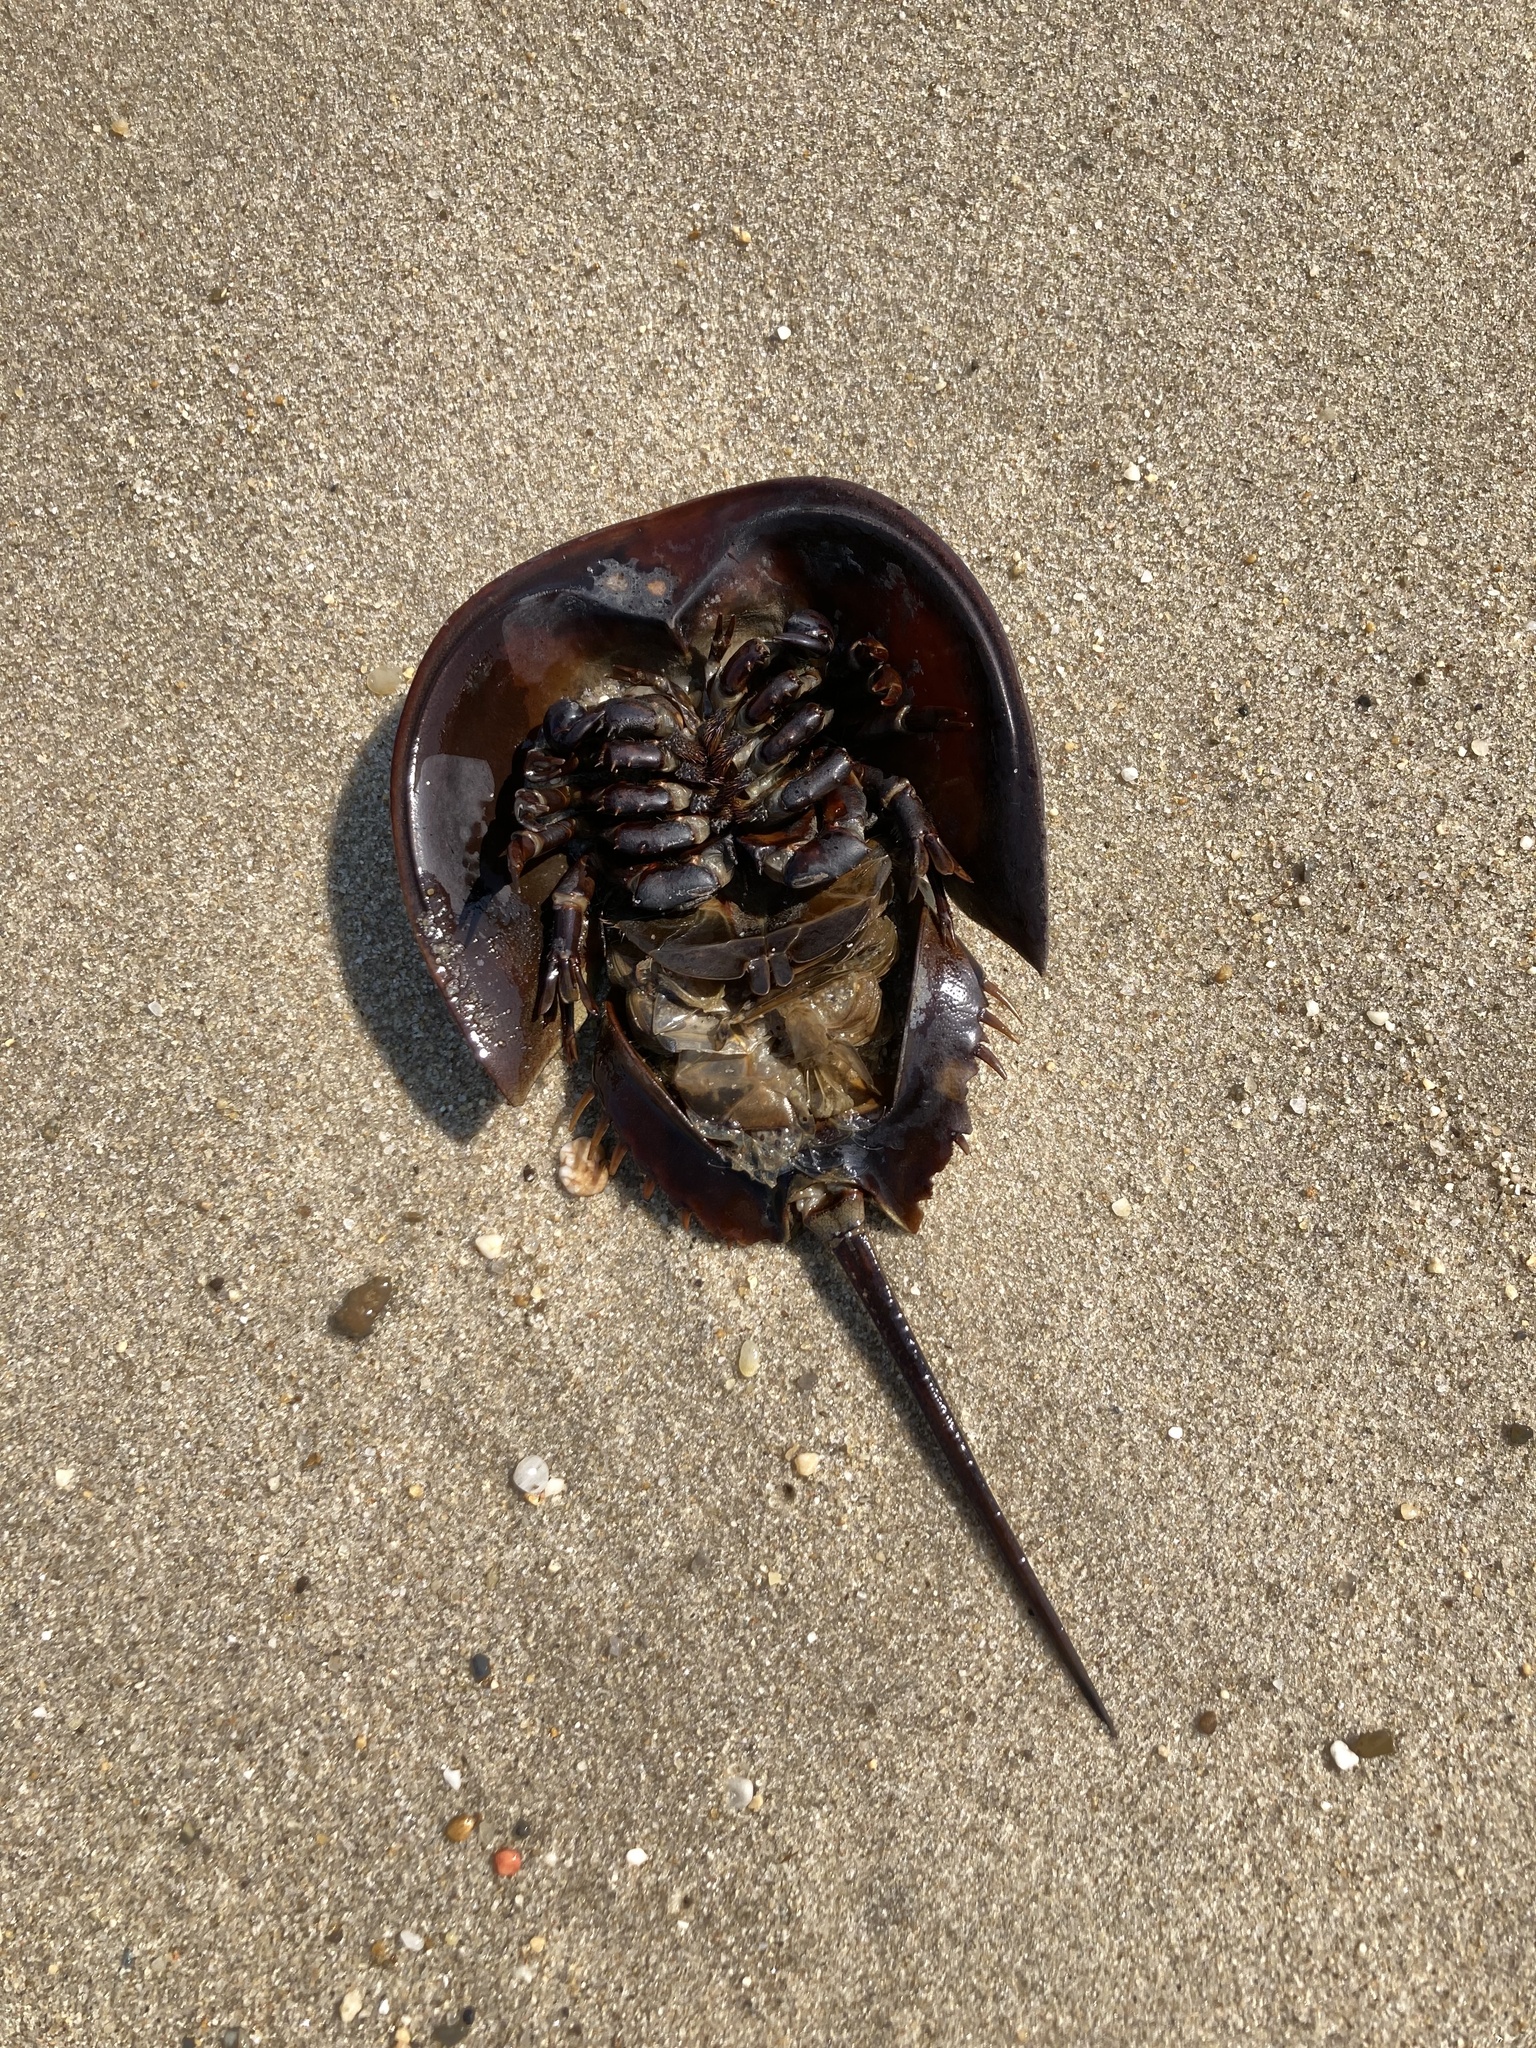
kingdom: Animalia
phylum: Arthropoda
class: Merostomata
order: Xiphosurida
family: Limulidae
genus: Limulus
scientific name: Limulus polyphemus
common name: Horseshoe crab
